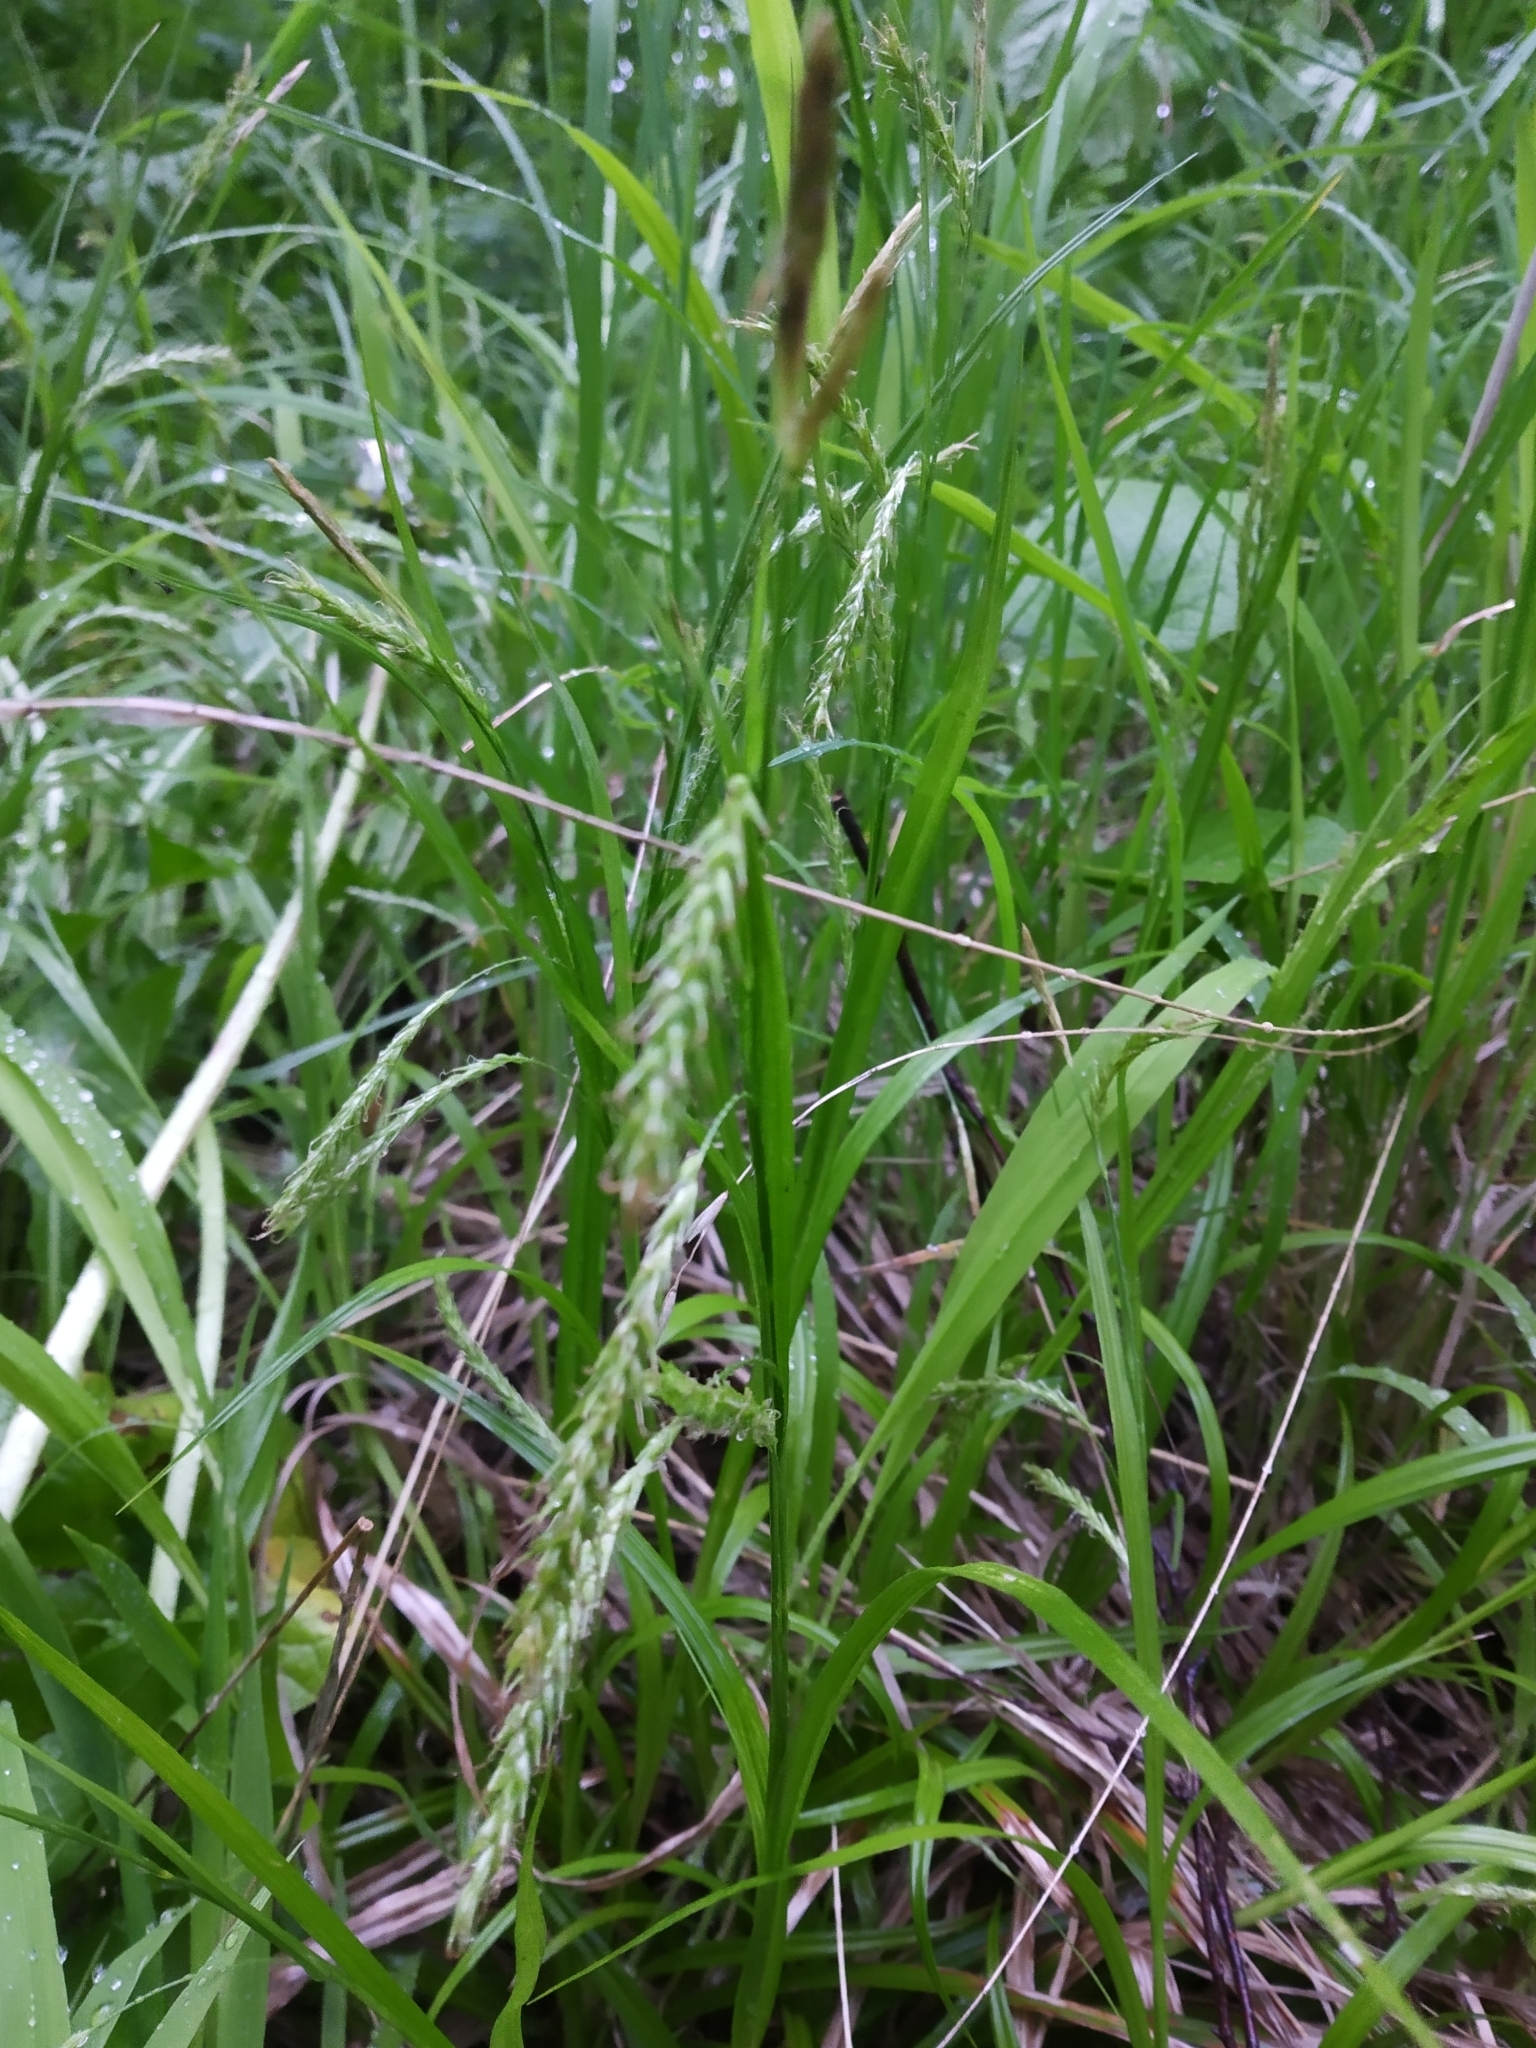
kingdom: Plantae
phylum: Tracheophyta
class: Liliopsida
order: Poales
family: Cyperaceae
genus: Carex
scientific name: Carex sylvatica
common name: Wood-sedge
